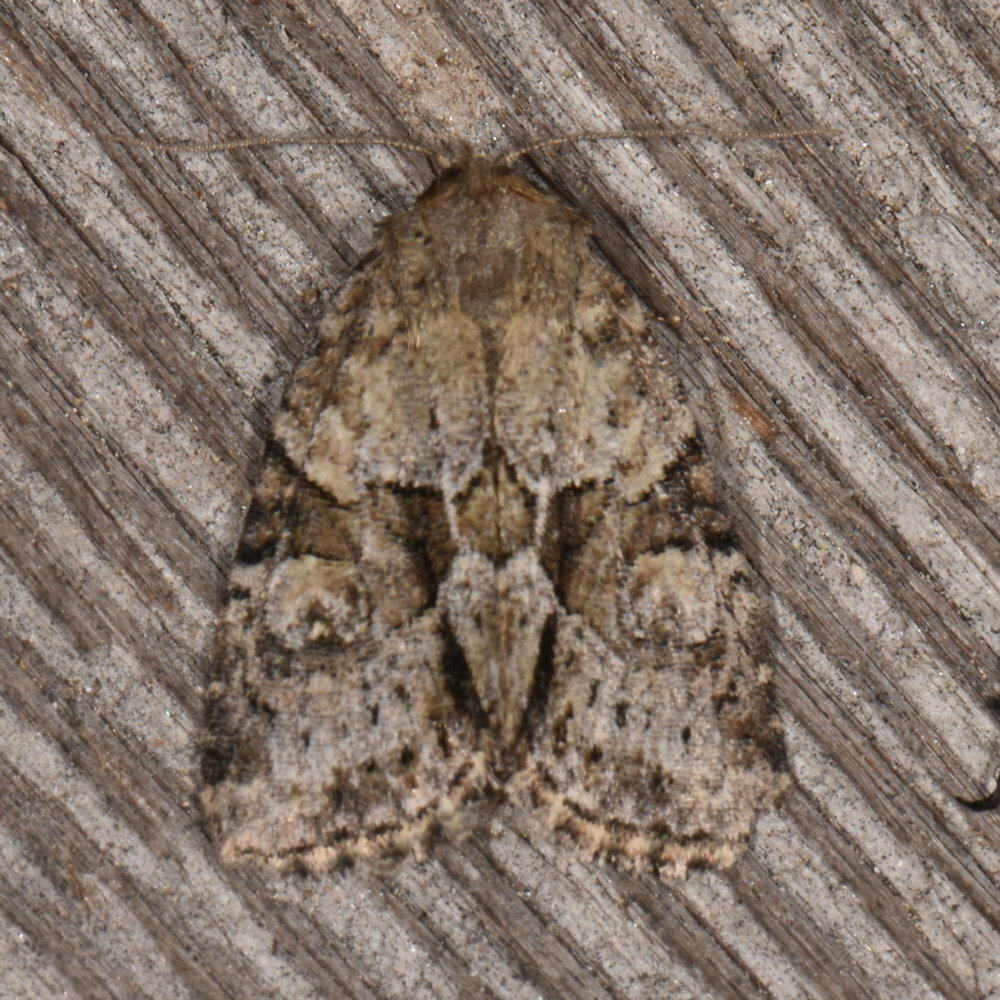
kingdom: Animalia
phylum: Arthropoda
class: Insecta
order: Lepidoptera
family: Noctuidae
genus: Neoligia
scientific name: Neoligia exhausta
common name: Exhausted brocade
